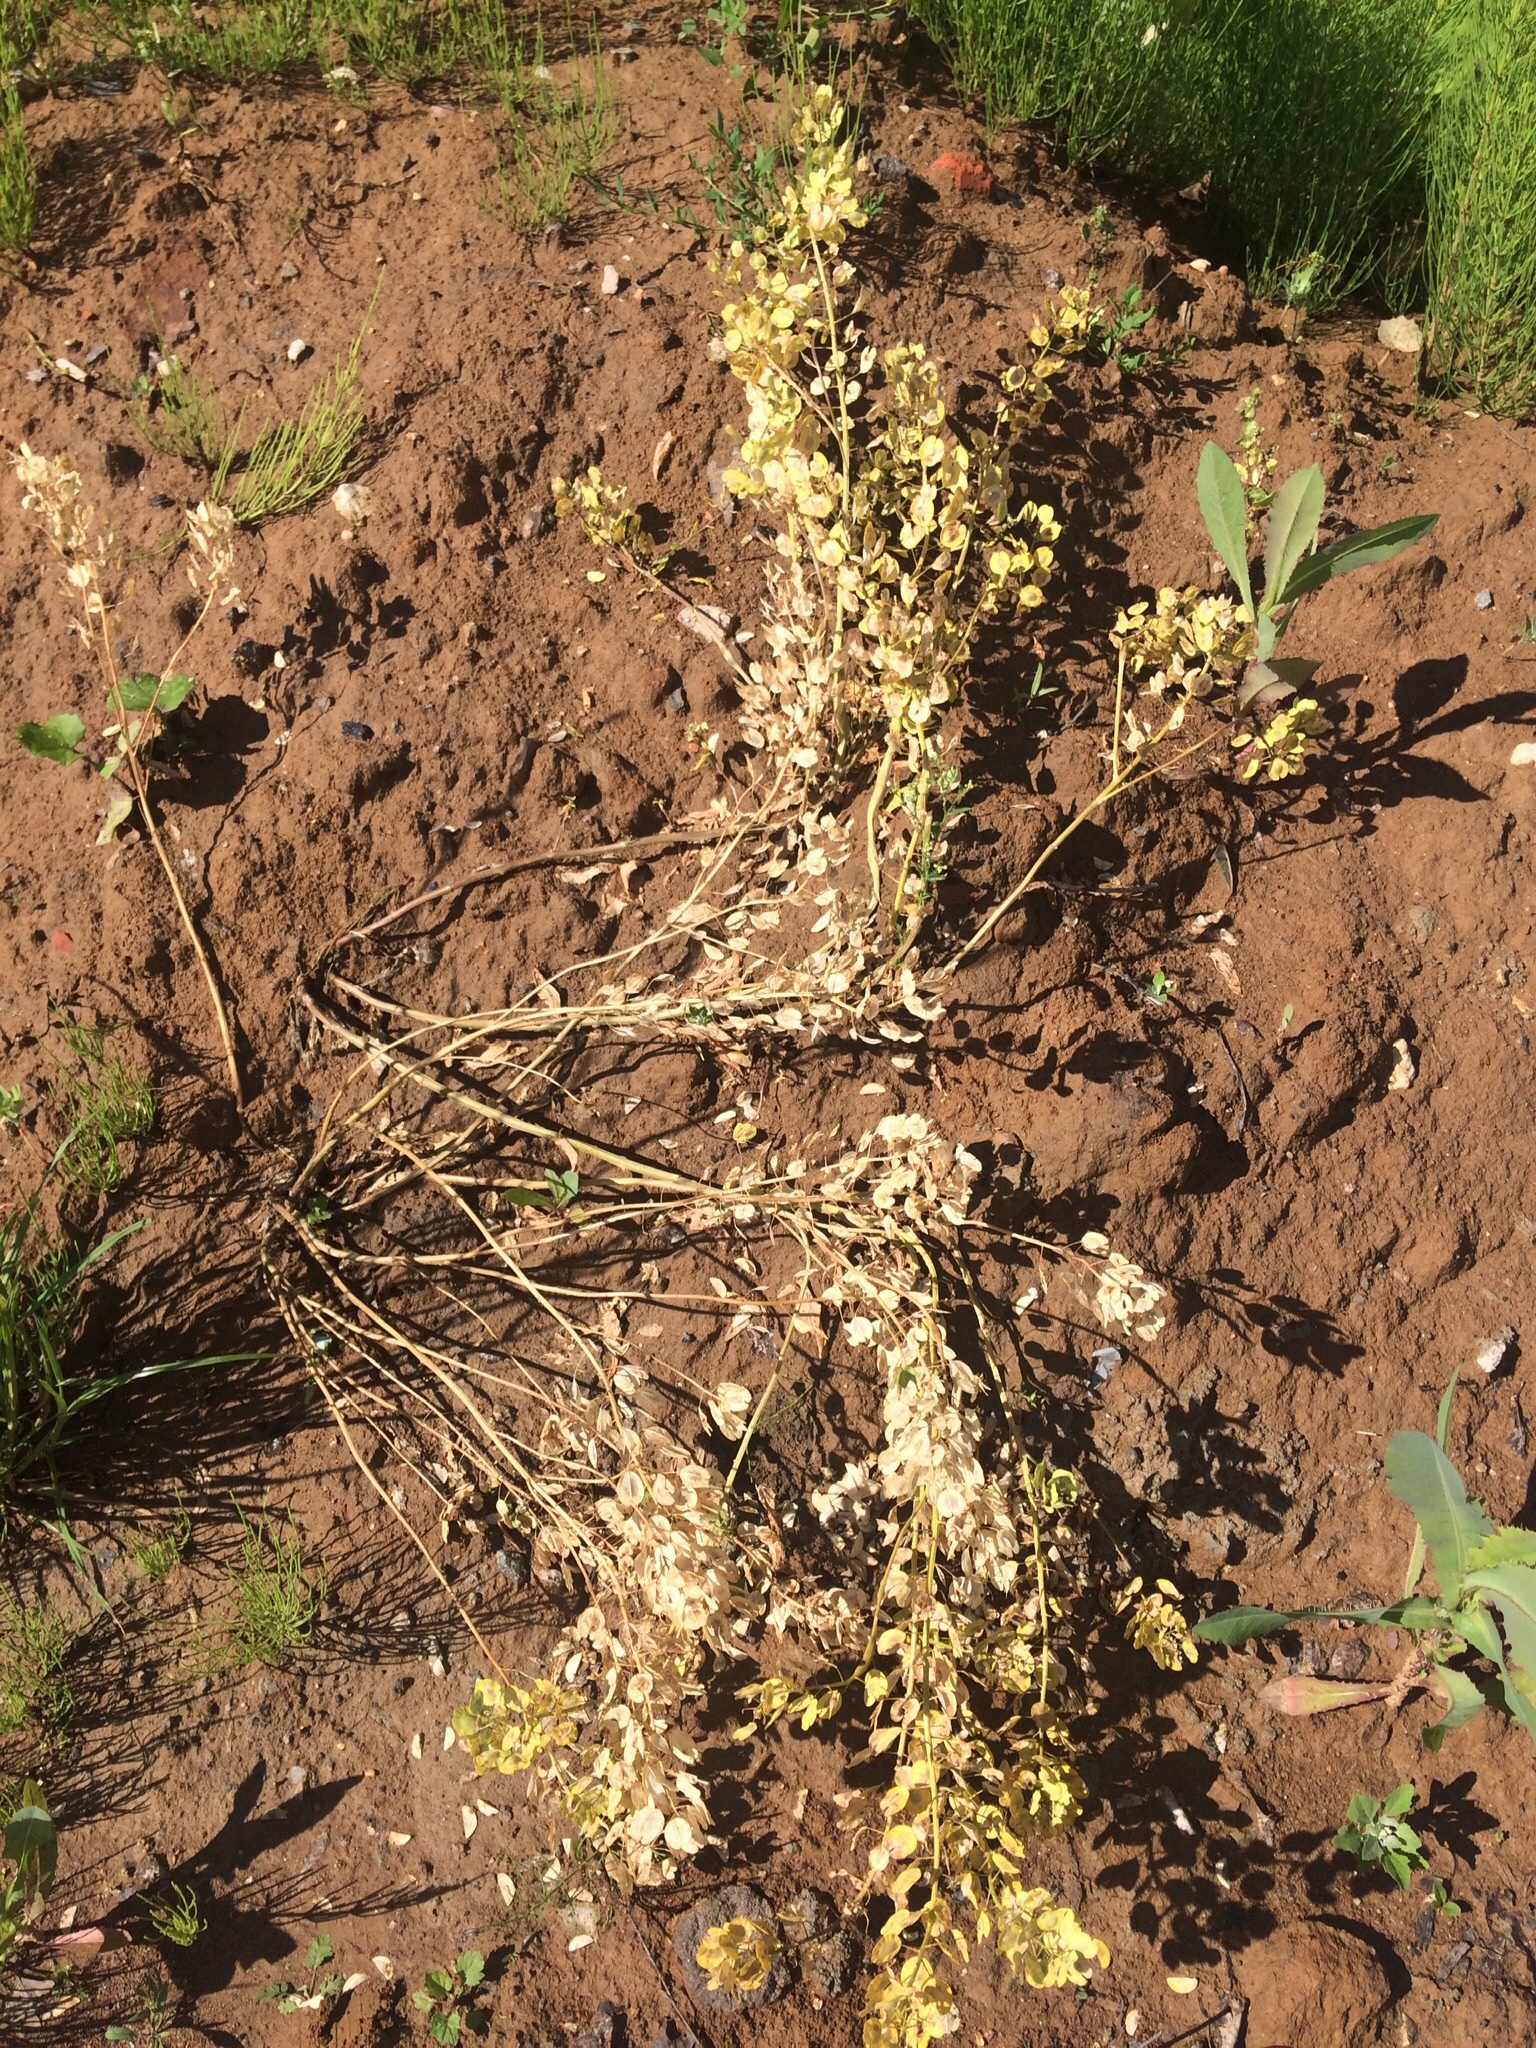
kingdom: Plantae
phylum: Tracheophyta
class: Magnoliopsida
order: Brassicales
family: Brassicaceae
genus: Thlaspi
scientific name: Thlaspi arvense
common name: Field pennycress
